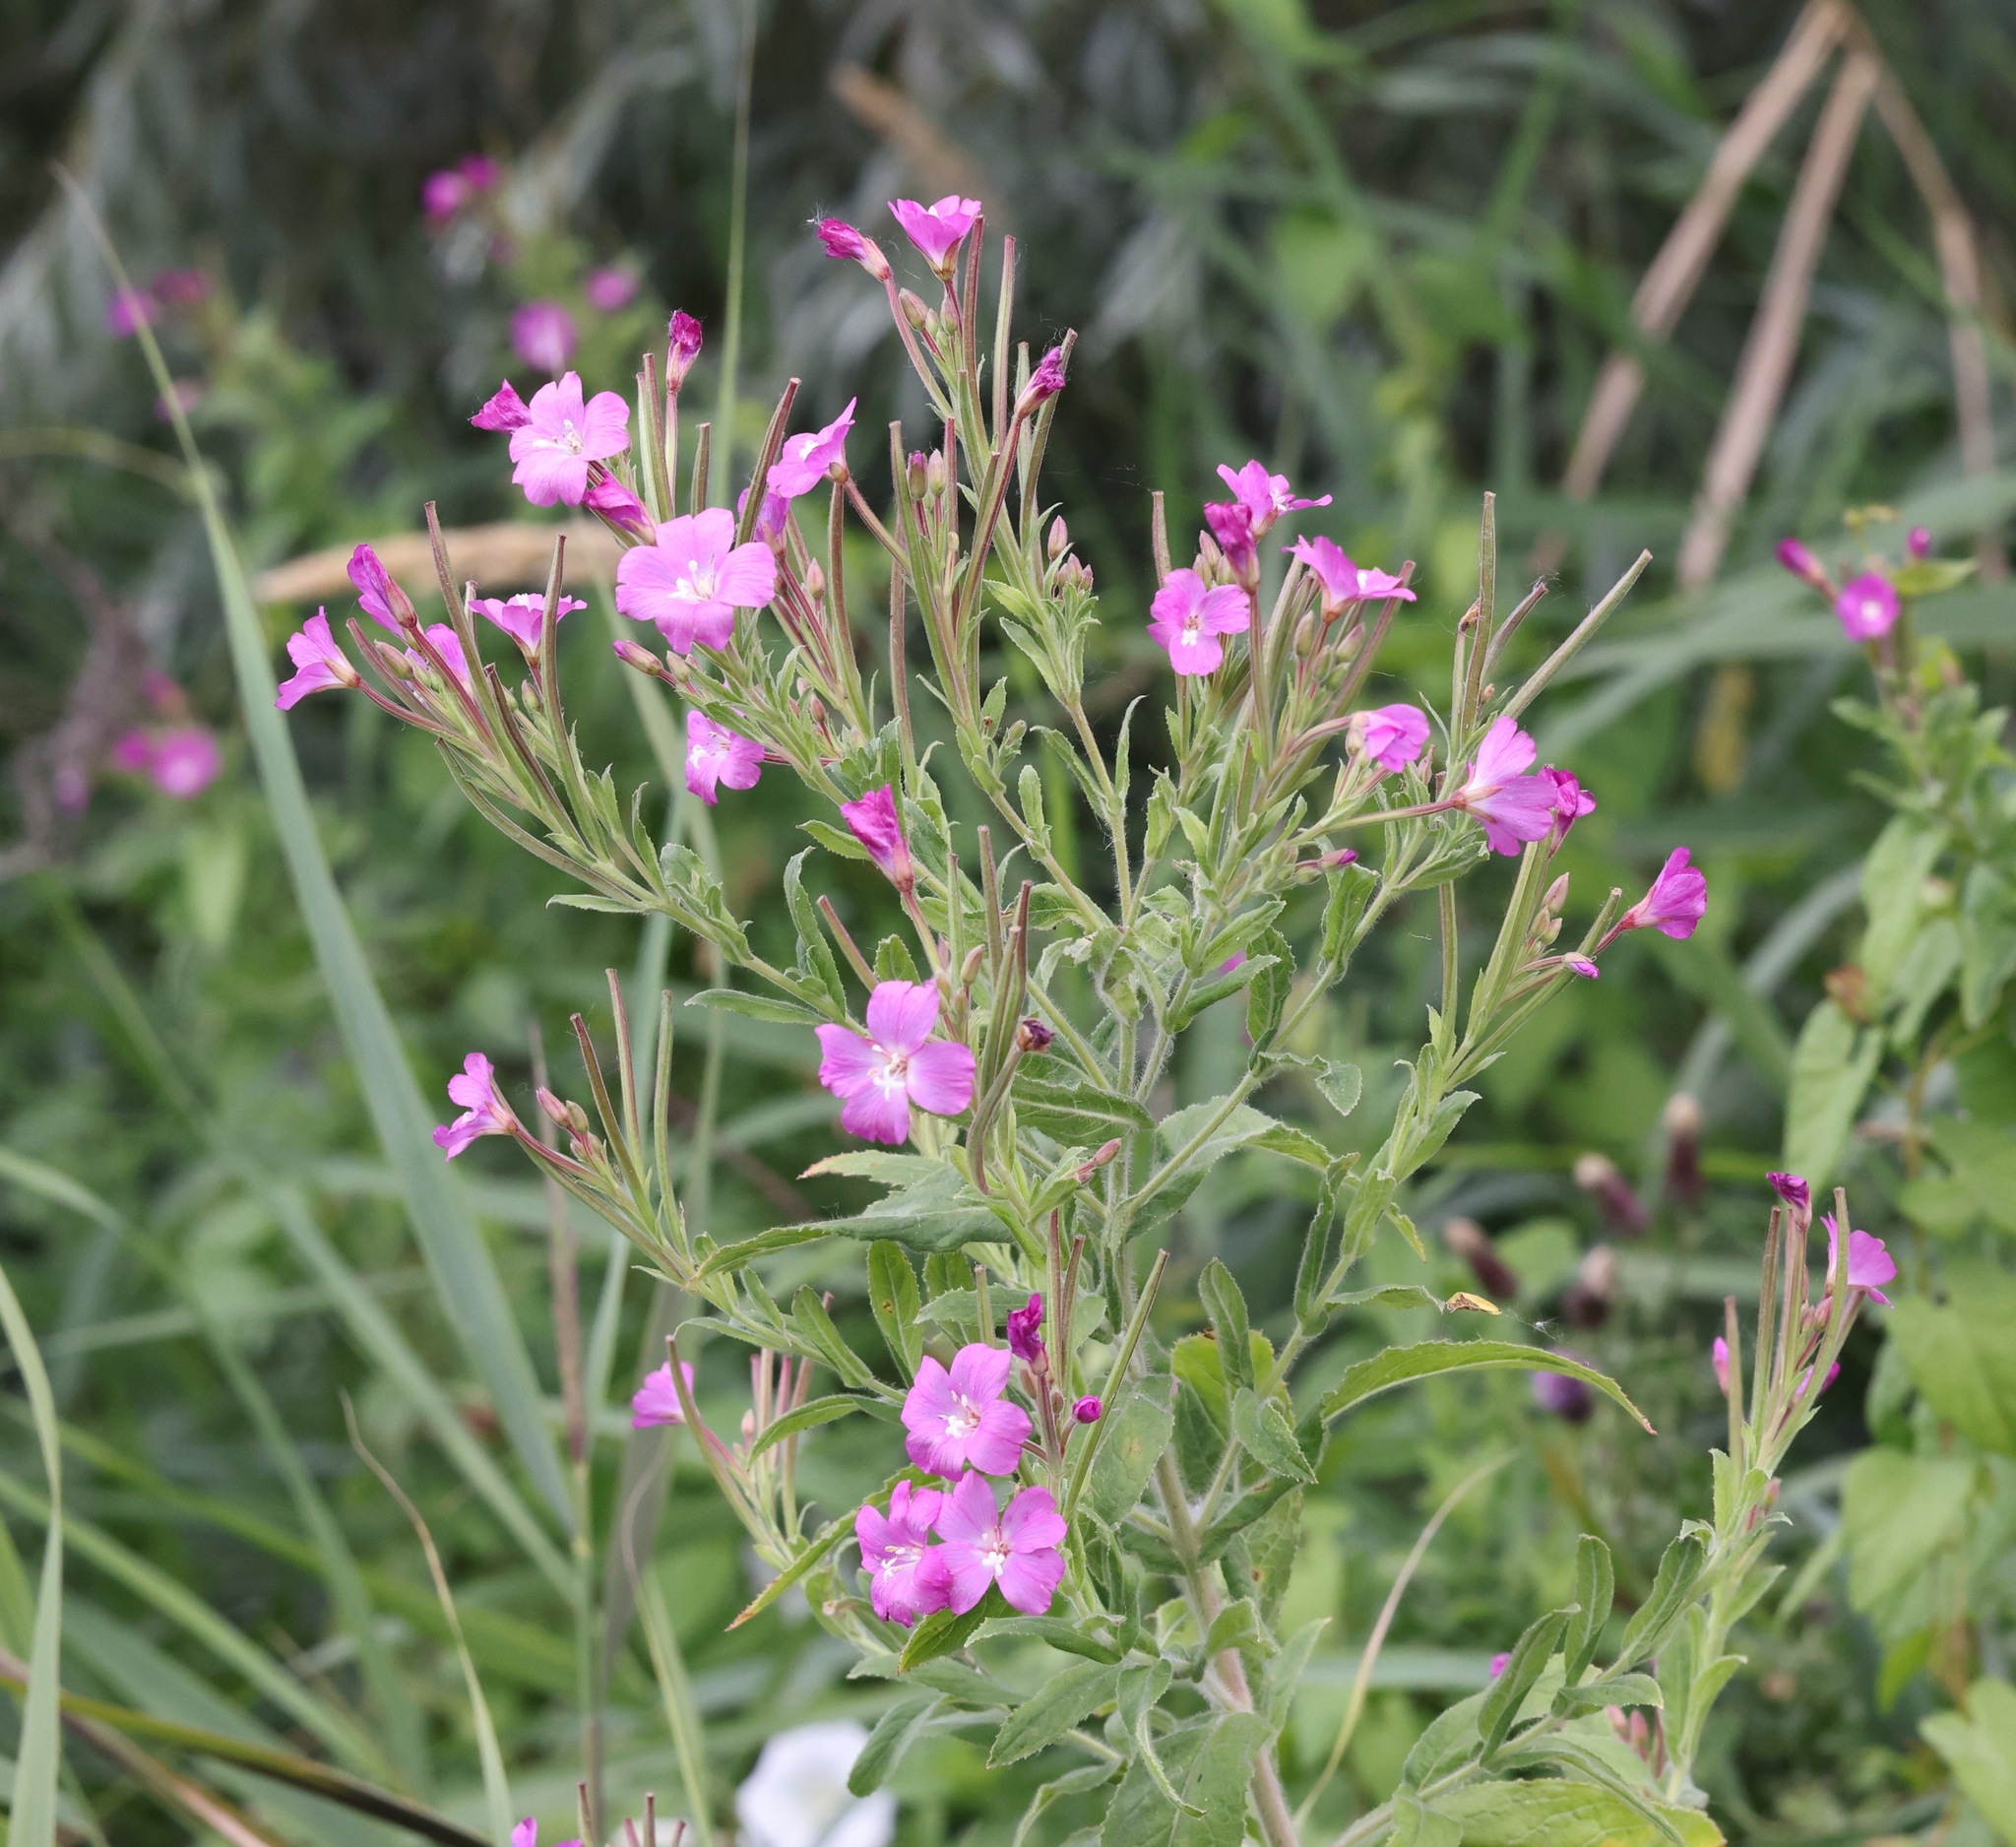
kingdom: Plantae
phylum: Tracheophyta
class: Magnoliopsida
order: Myrtales
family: Onagraceae
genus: Epilobium
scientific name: Epilobium hirsutum
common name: Great willowherb
